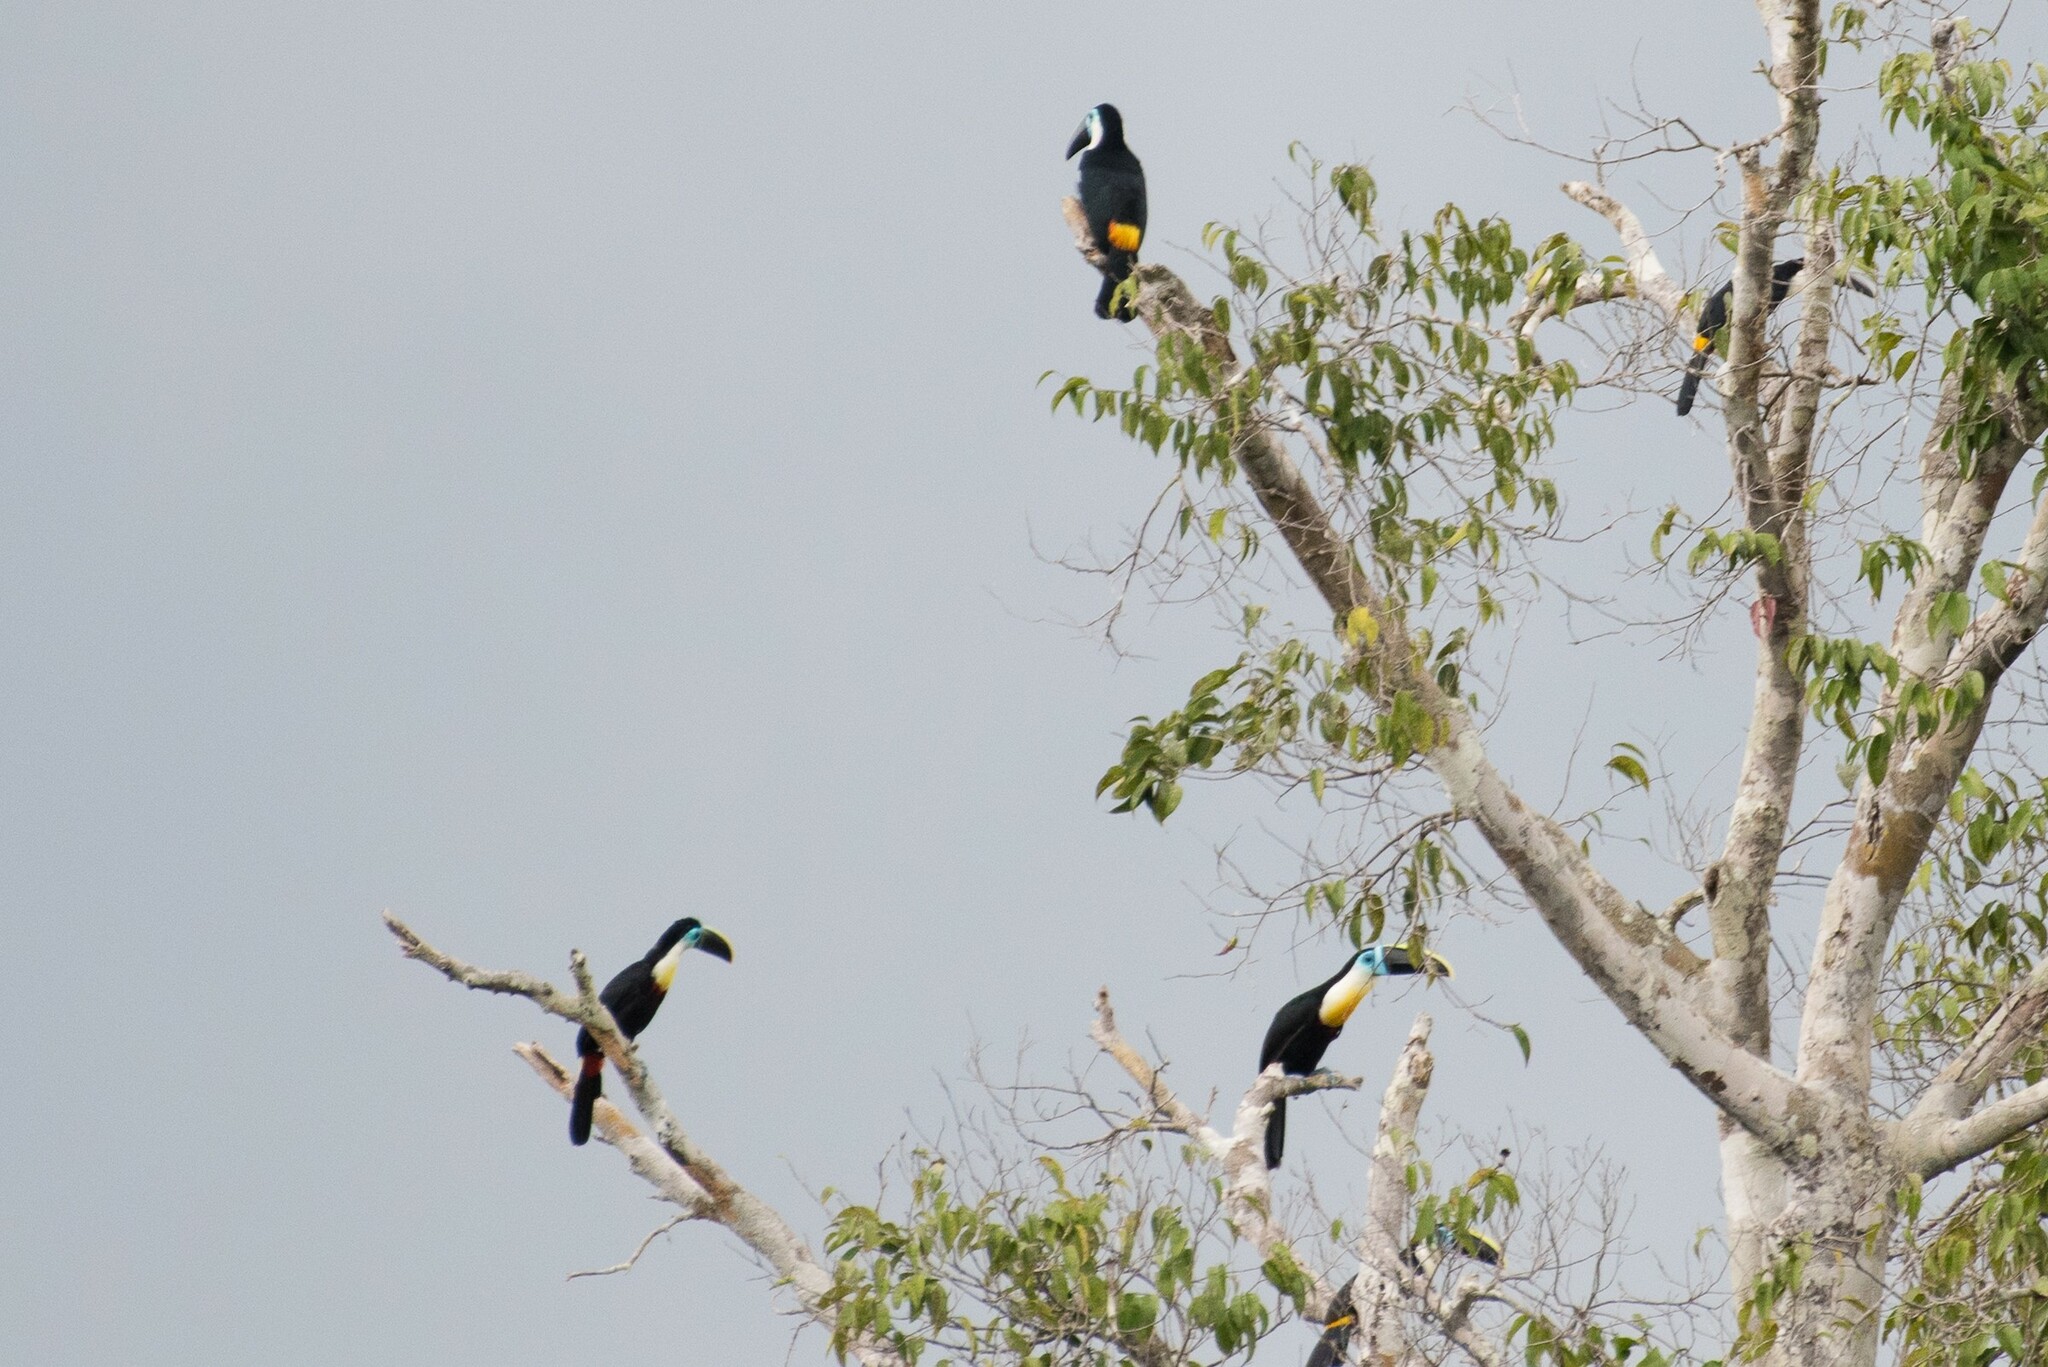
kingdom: Animalia
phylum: Chordata
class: Aves
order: Piciformes
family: Ramphastidae
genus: Ramphastos
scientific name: Ramphastos vitellinus
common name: Channel-billed toucan
